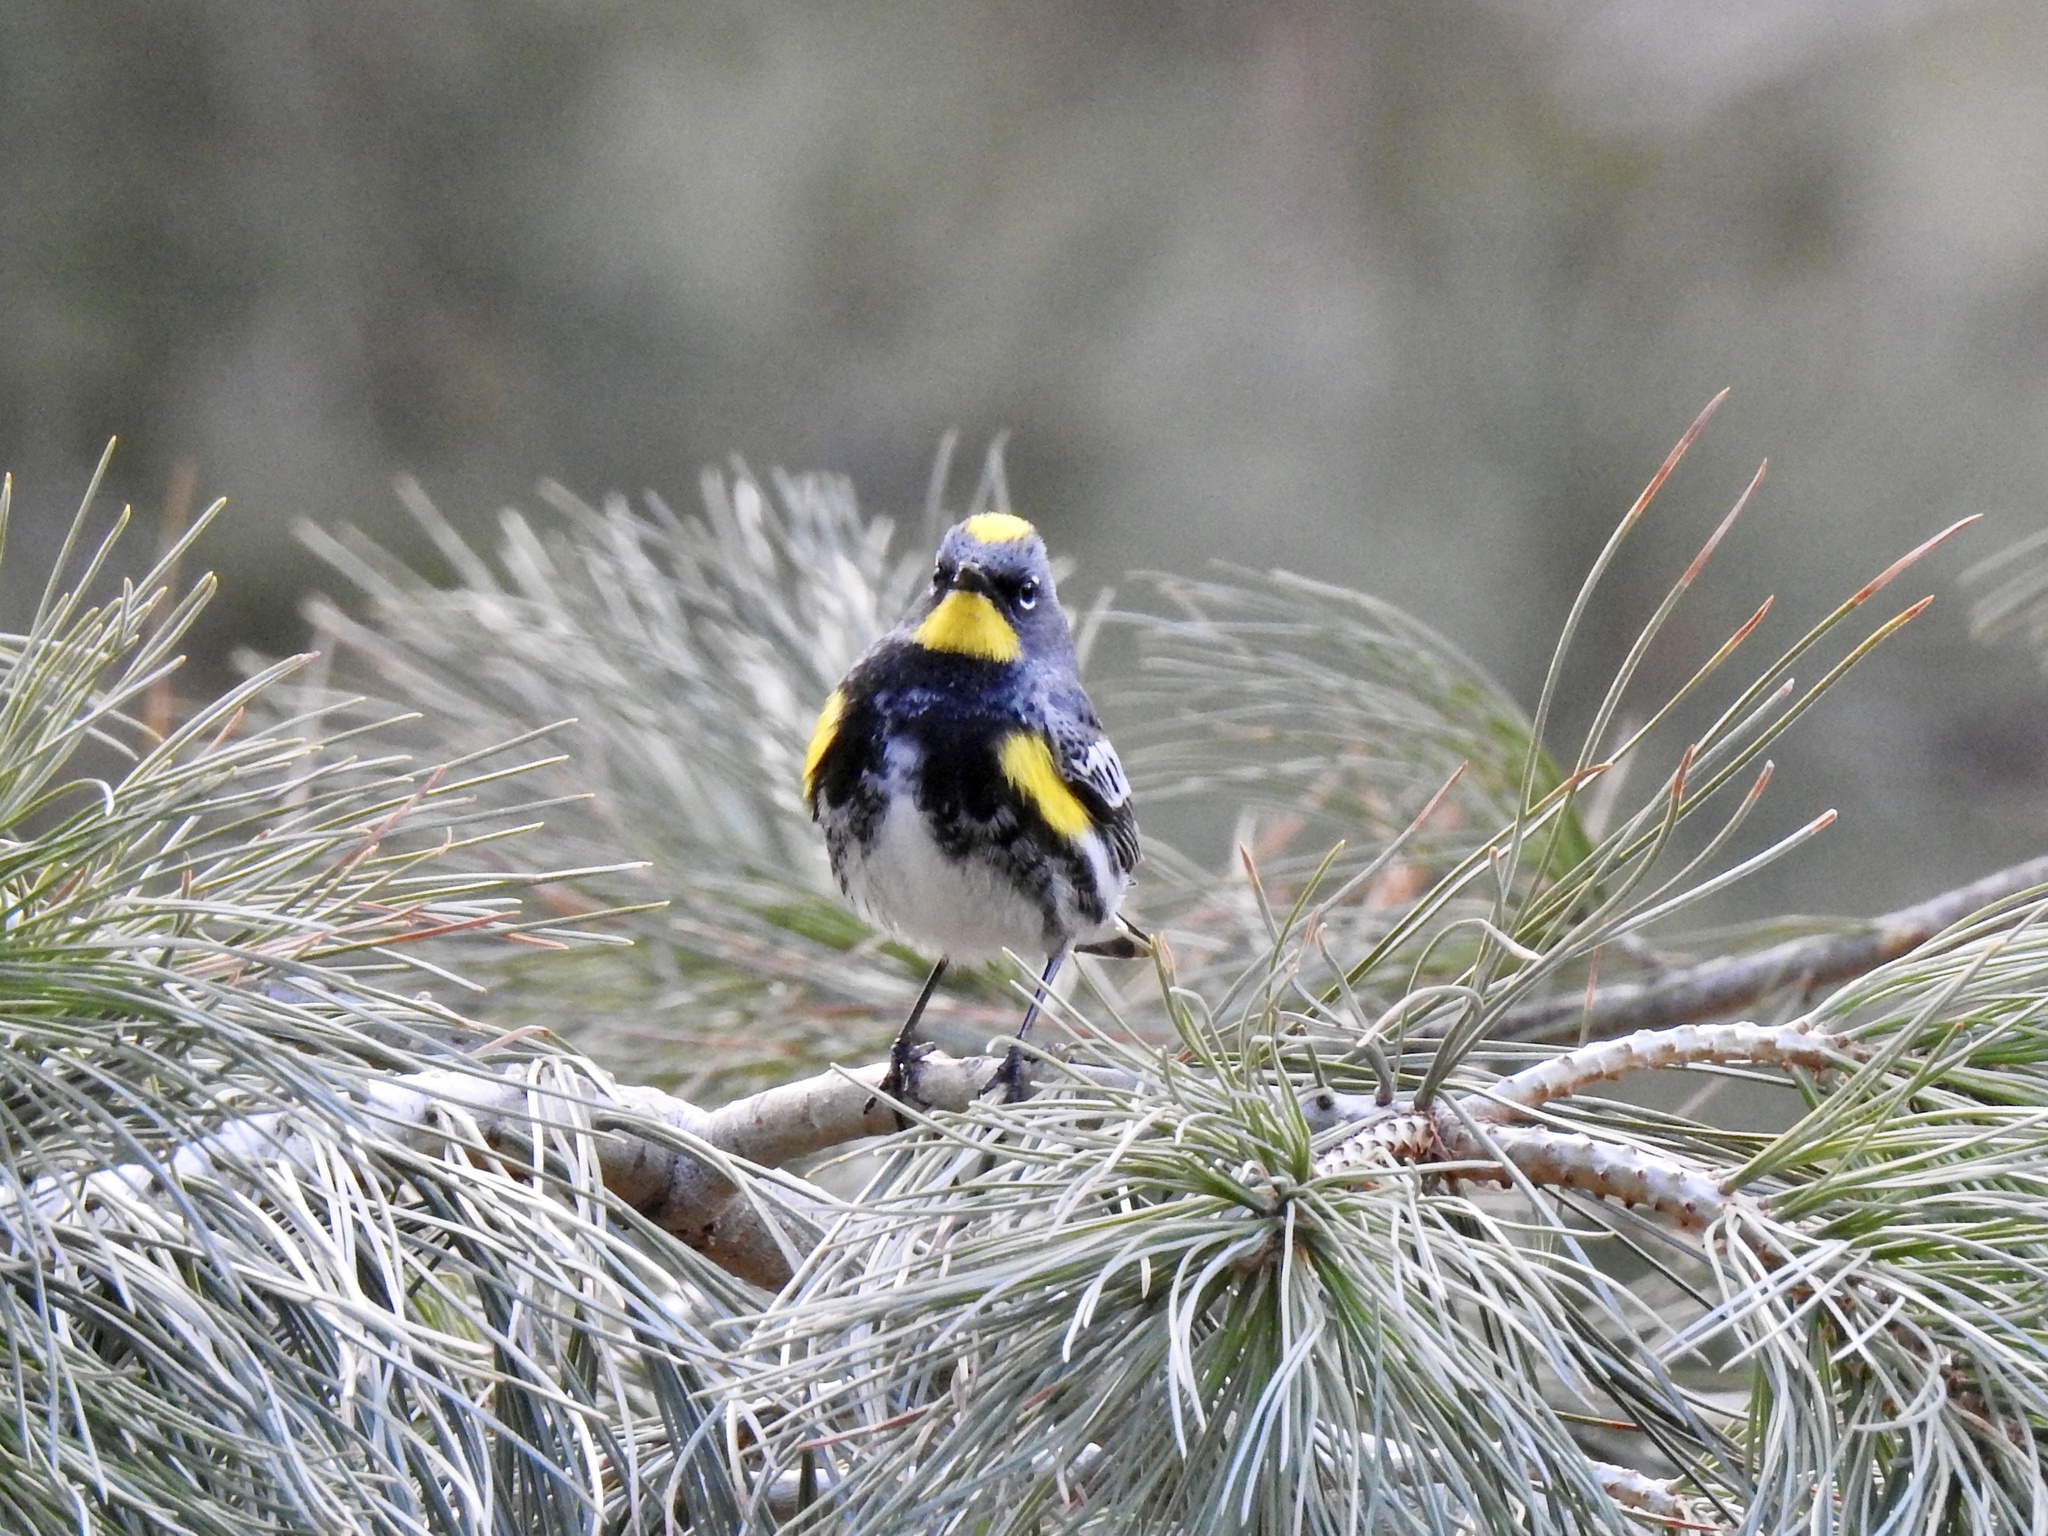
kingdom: Animalia
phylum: Chordata
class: Aves
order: Passeriformes
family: Parulidae
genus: Setophaga
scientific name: Setophaga coronata
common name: Myrtle warbler
